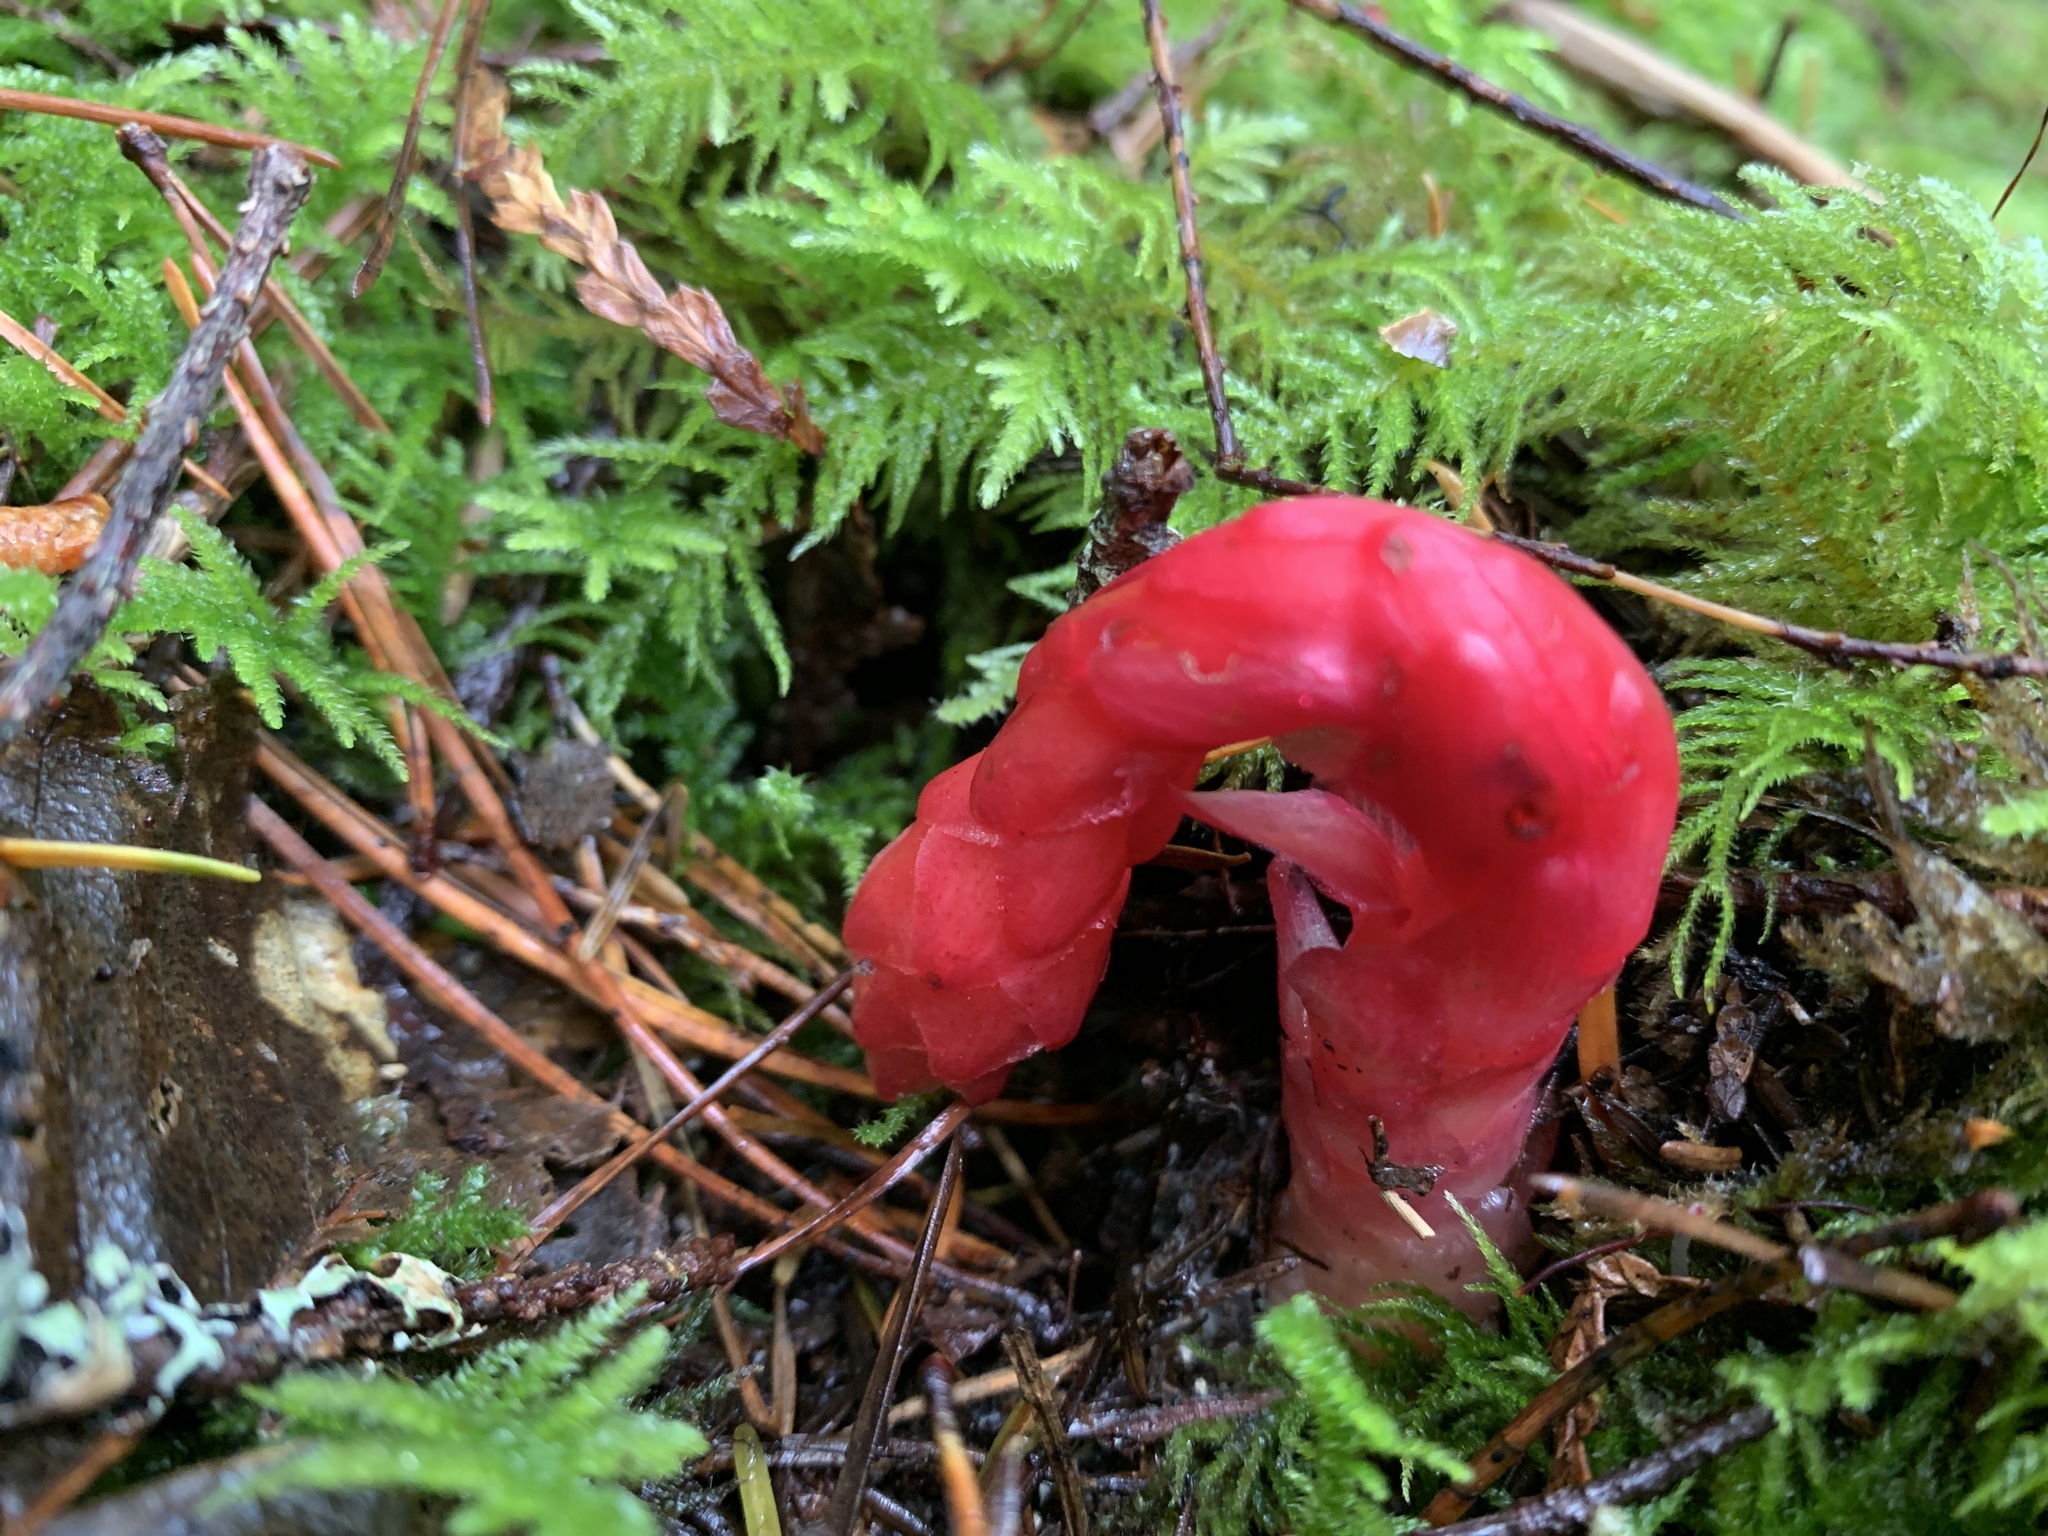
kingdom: Plantae
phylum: Tracheophyta
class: Magnoliopsida
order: Ericales
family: Ericaceae
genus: Hypopitys
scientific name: Hypopitys monotropa
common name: Yellow bird's-nest
